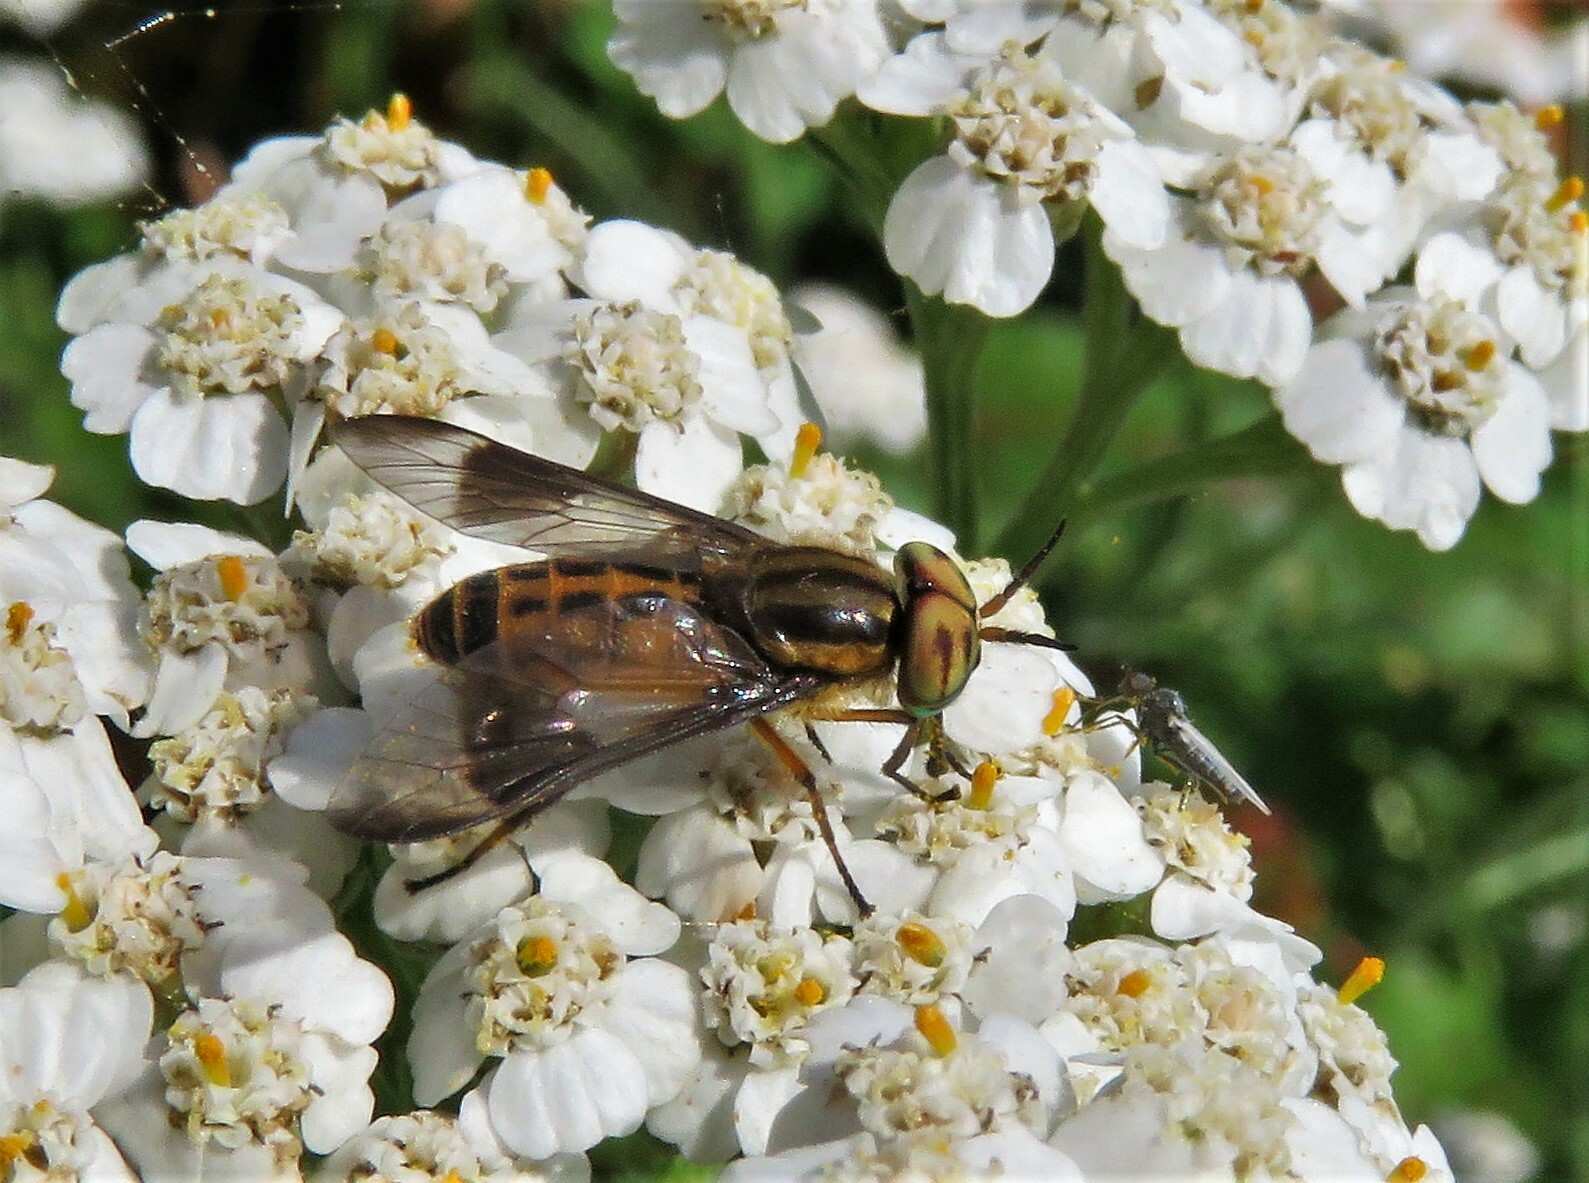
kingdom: Animalia
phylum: Arthropoda
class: Insecta
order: Diptera
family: Tabanidae
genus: Chrysops
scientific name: Chrysops lateralis
